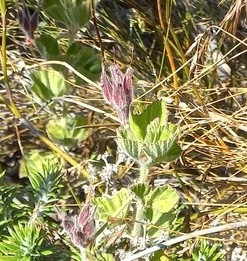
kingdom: Plantae
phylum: Tracheophyta
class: Magnoliopsida
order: Geraniales
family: Geraniaceae
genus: Pelargonium
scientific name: Pelargonium cucullatum
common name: Tree pelargonium
